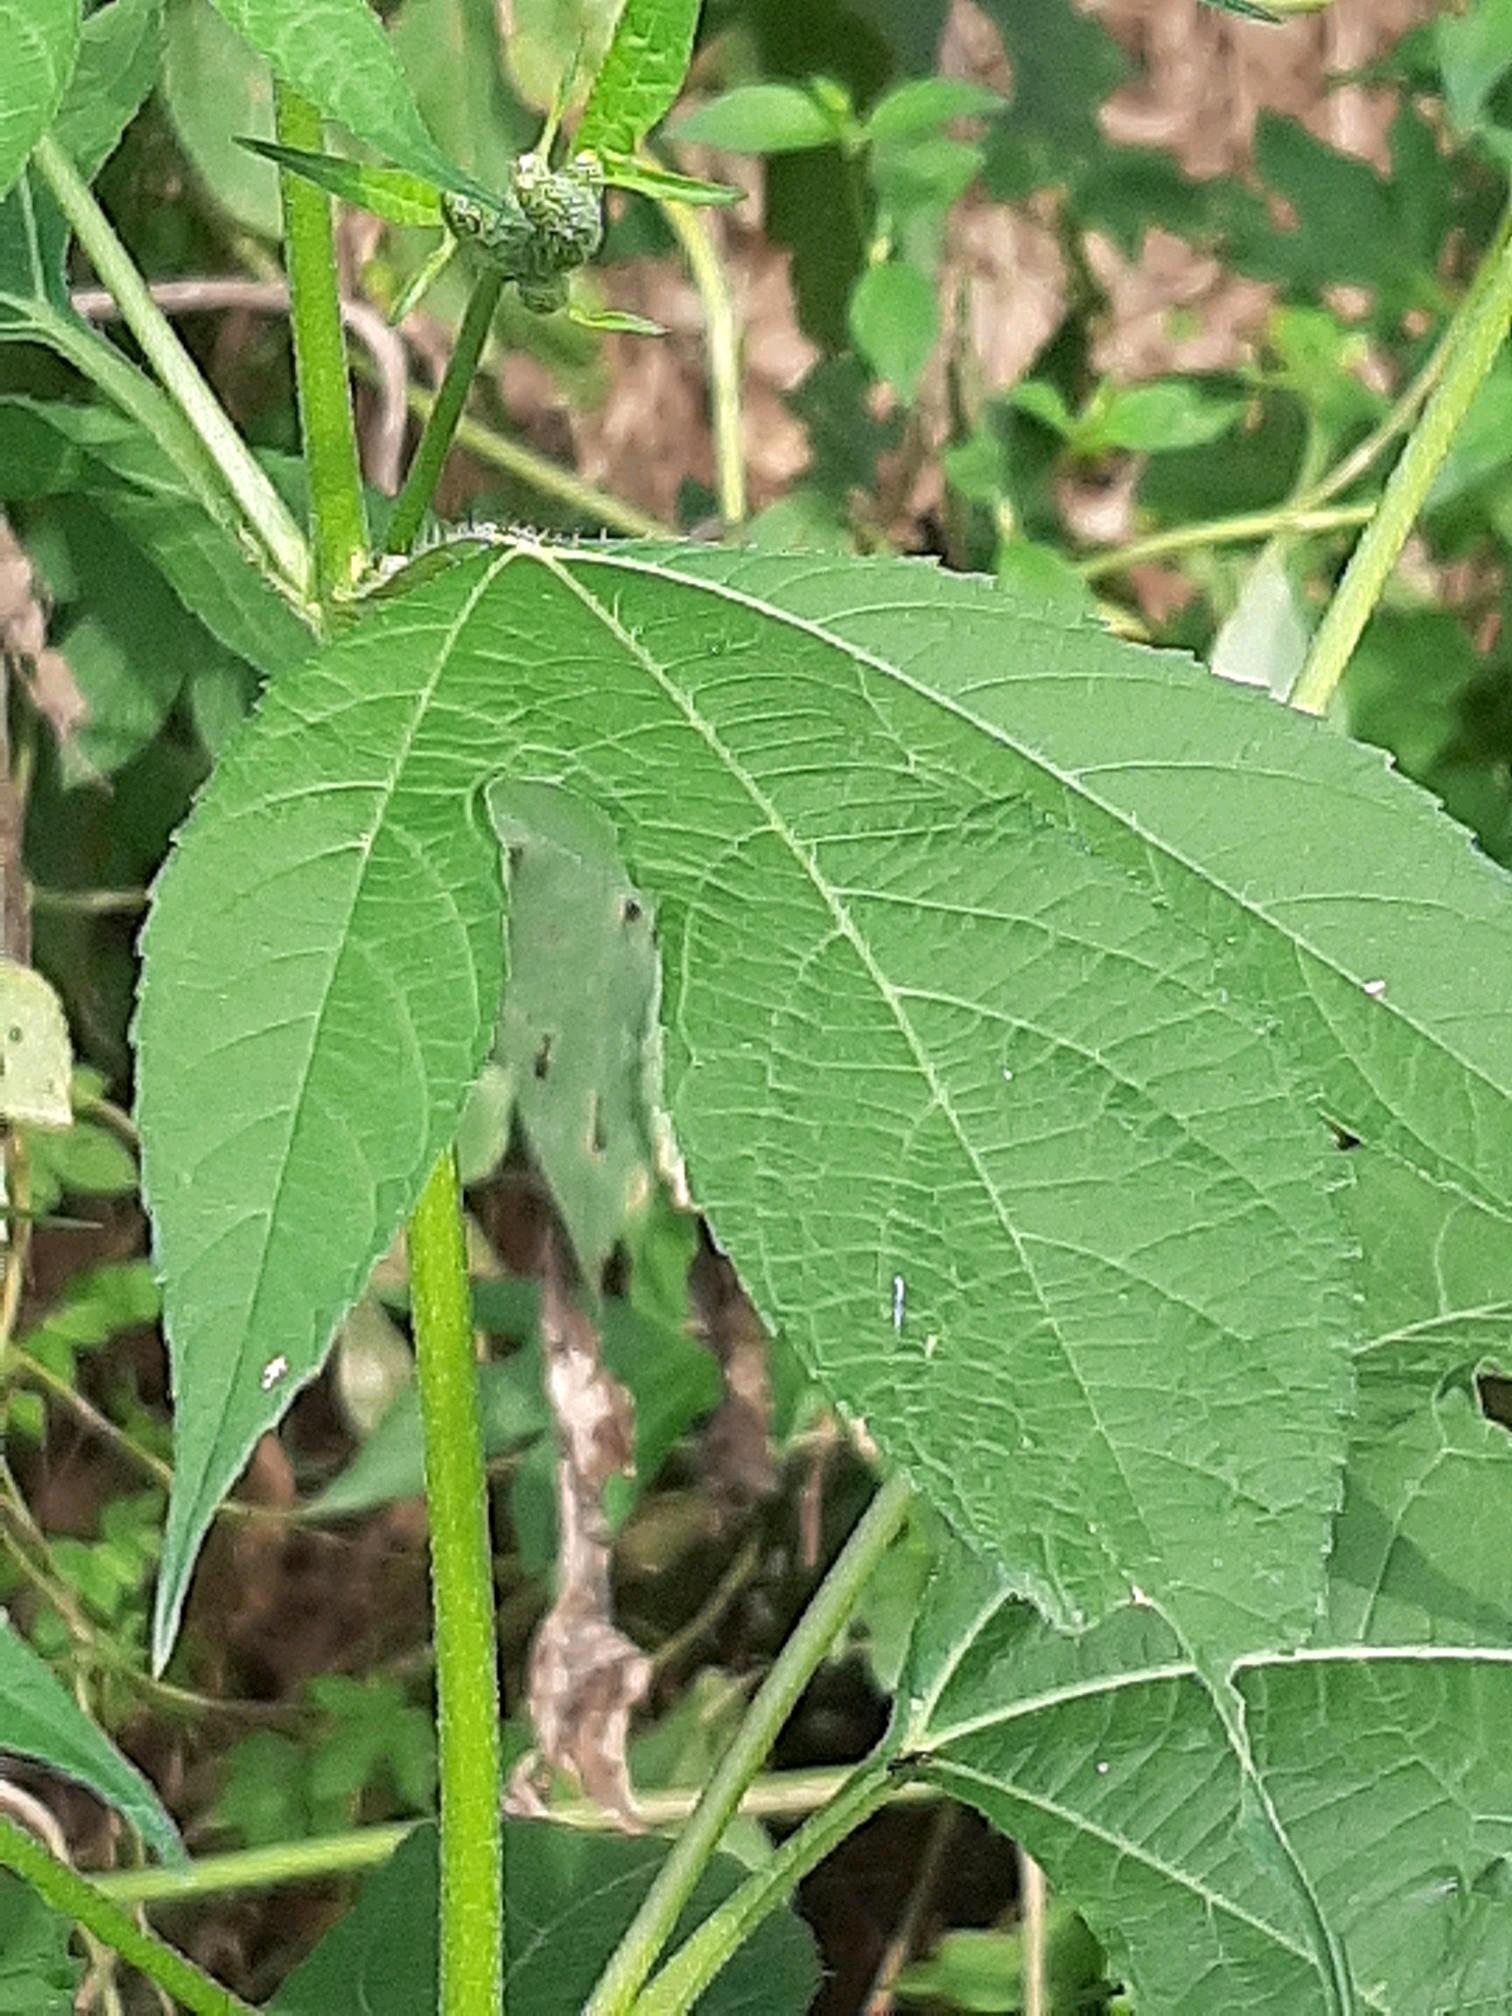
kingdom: Plantae
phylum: Tracheophyta
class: Magnoliopsida
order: Asterales
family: Asteraceae
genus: Ambrosia
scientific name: Ambrosia trifida
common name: Giant ragweed
